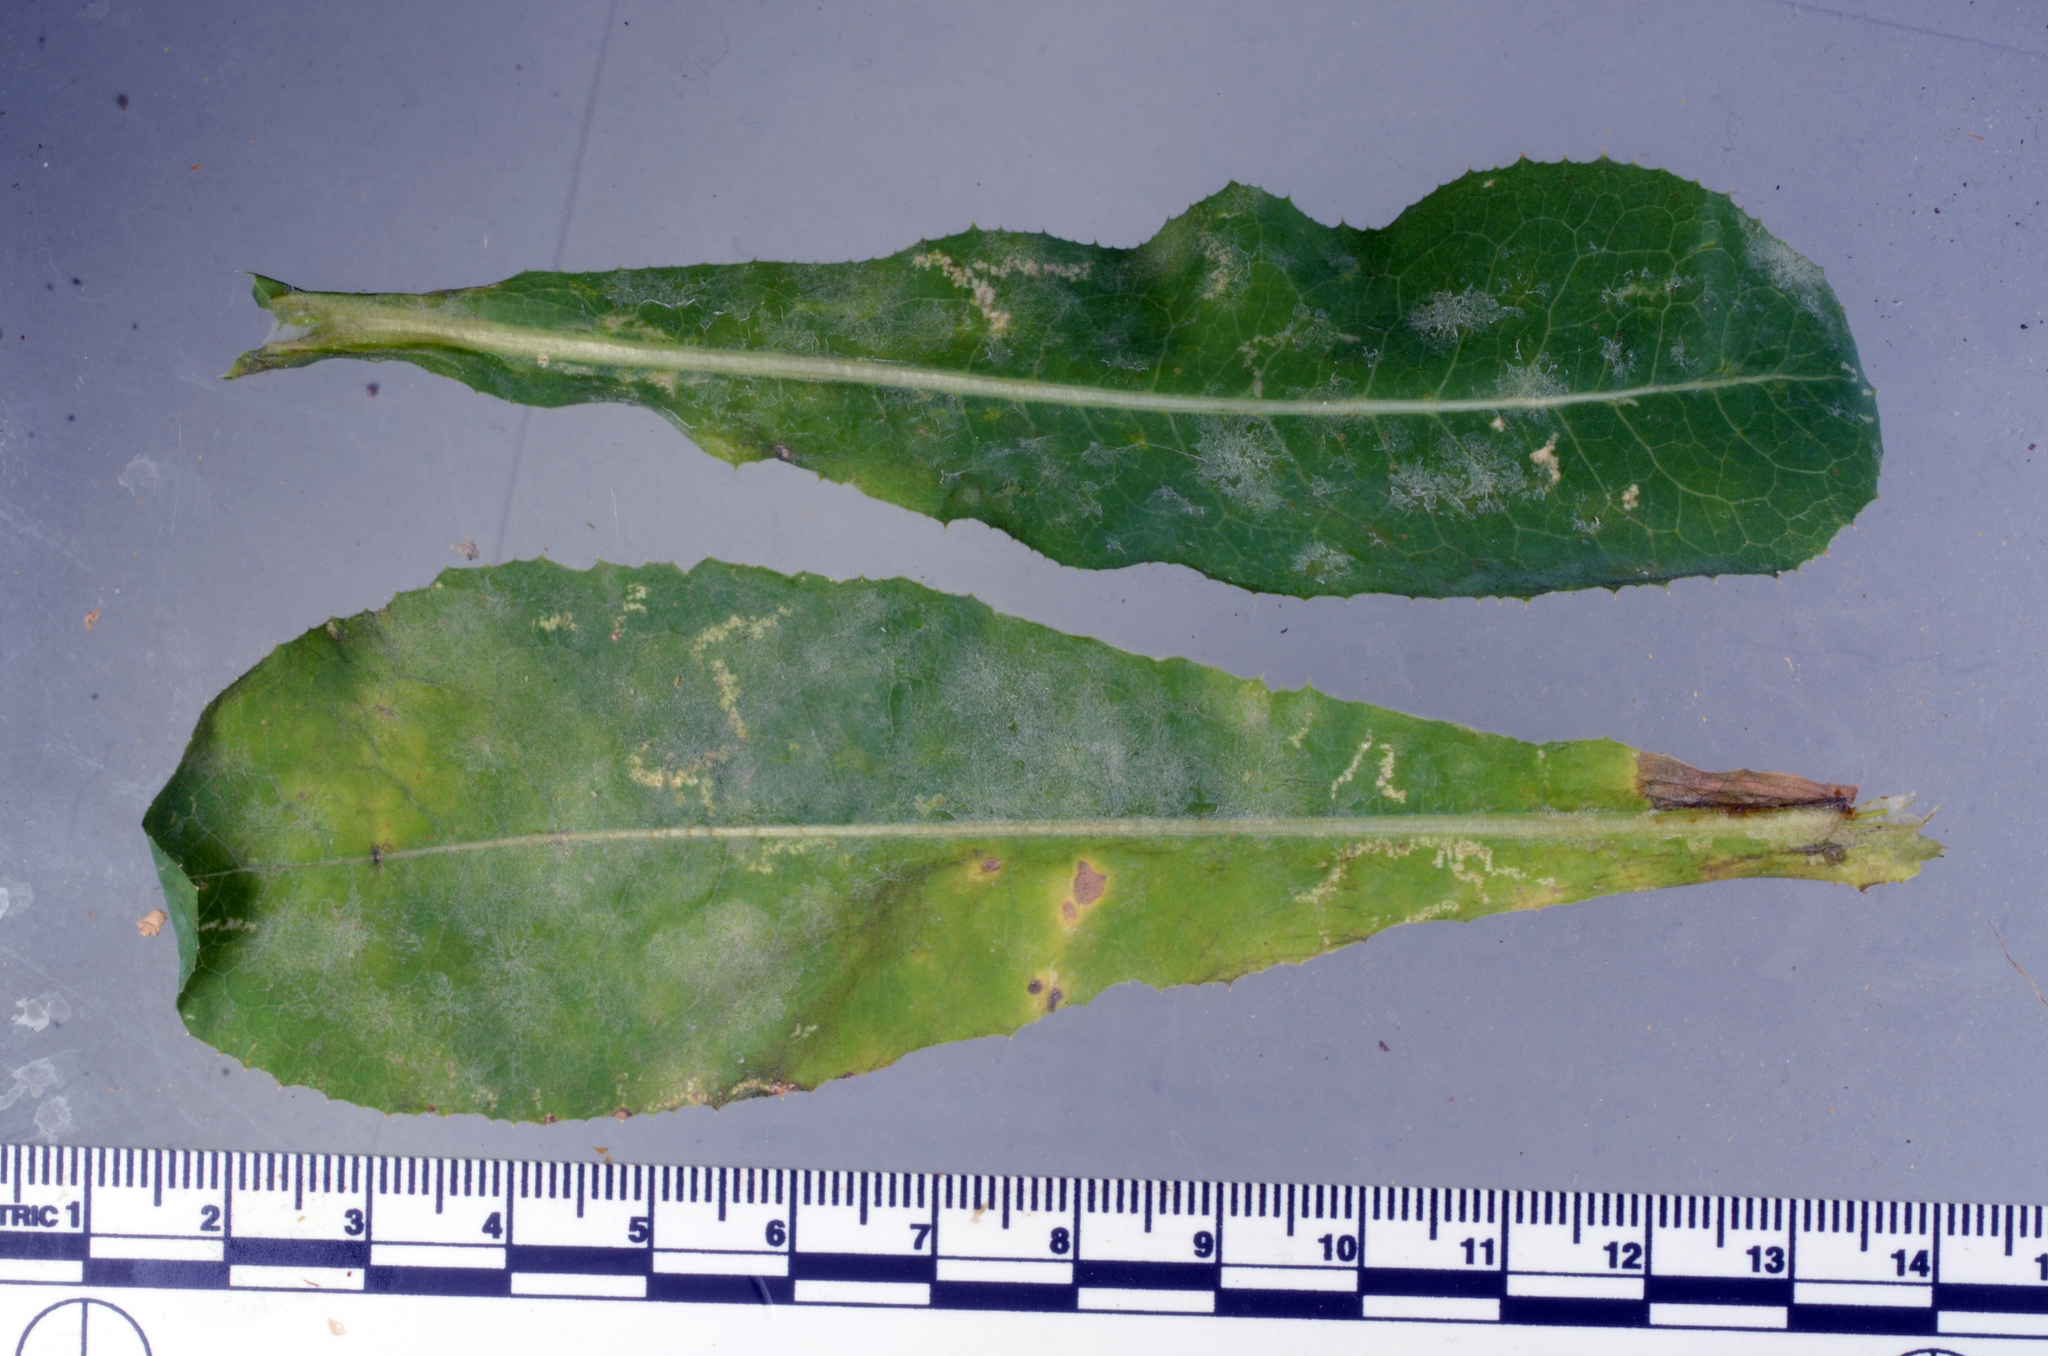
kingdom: Fungi
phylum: Ascomycota
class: Leotiomycetes
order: Helotiales
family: Erysiphaceae
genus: Golovinomyces
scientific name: Golovinomyces bolayi
